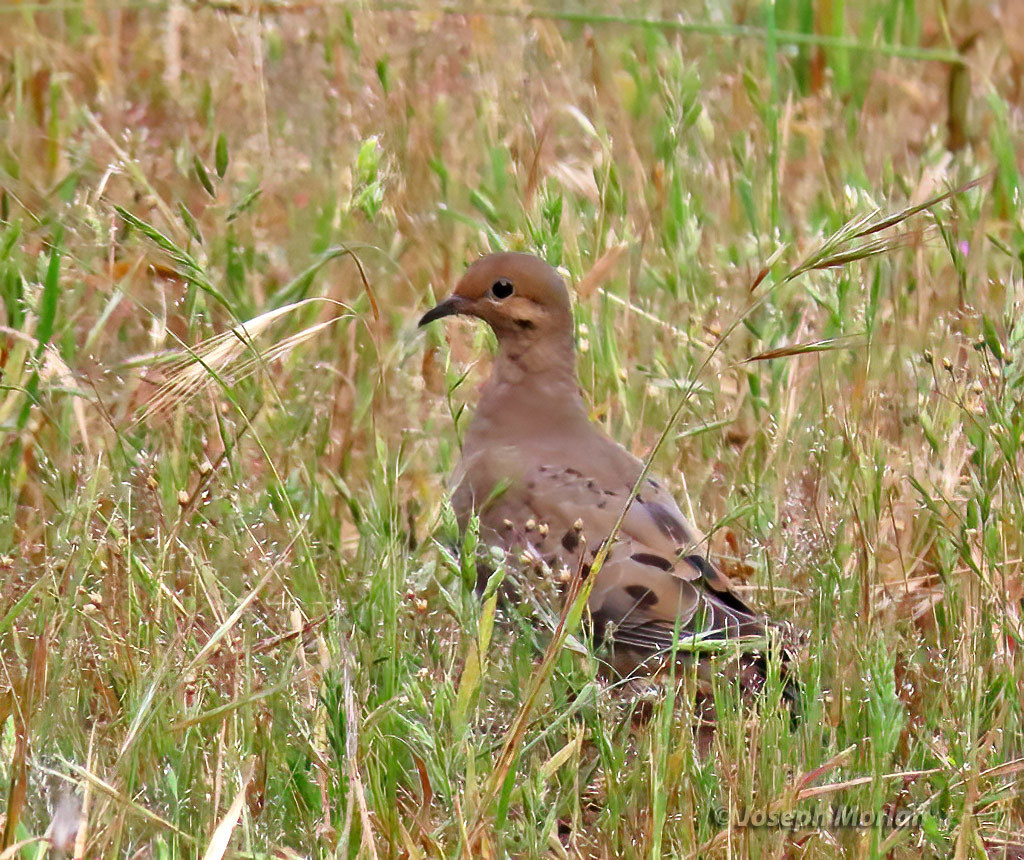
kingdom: Animalia
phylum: Chordata
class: Aves
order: Columbiformes
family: Columbidae
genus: Zenaida
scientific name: Zenaida macroura
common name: Mourning dove
